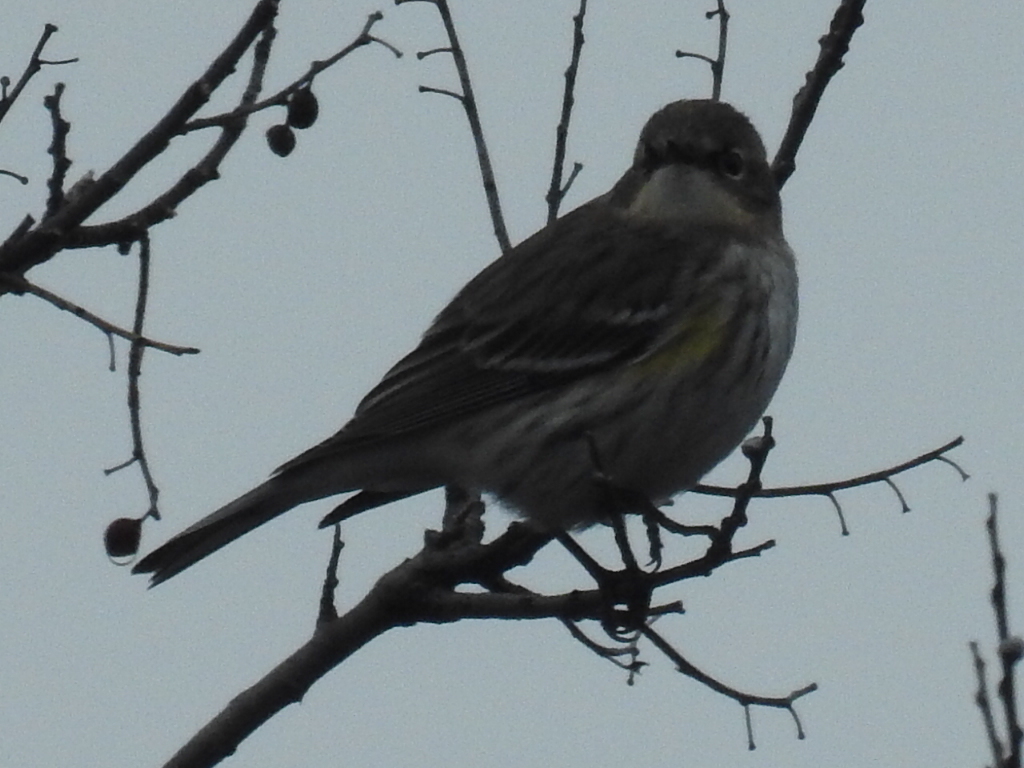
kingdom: Animalia
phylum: Chordata
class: Aves
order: Passeriformes
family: Parulidae
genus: Setophaga
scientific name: Setophaga coronata
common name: Myrtle warbler
